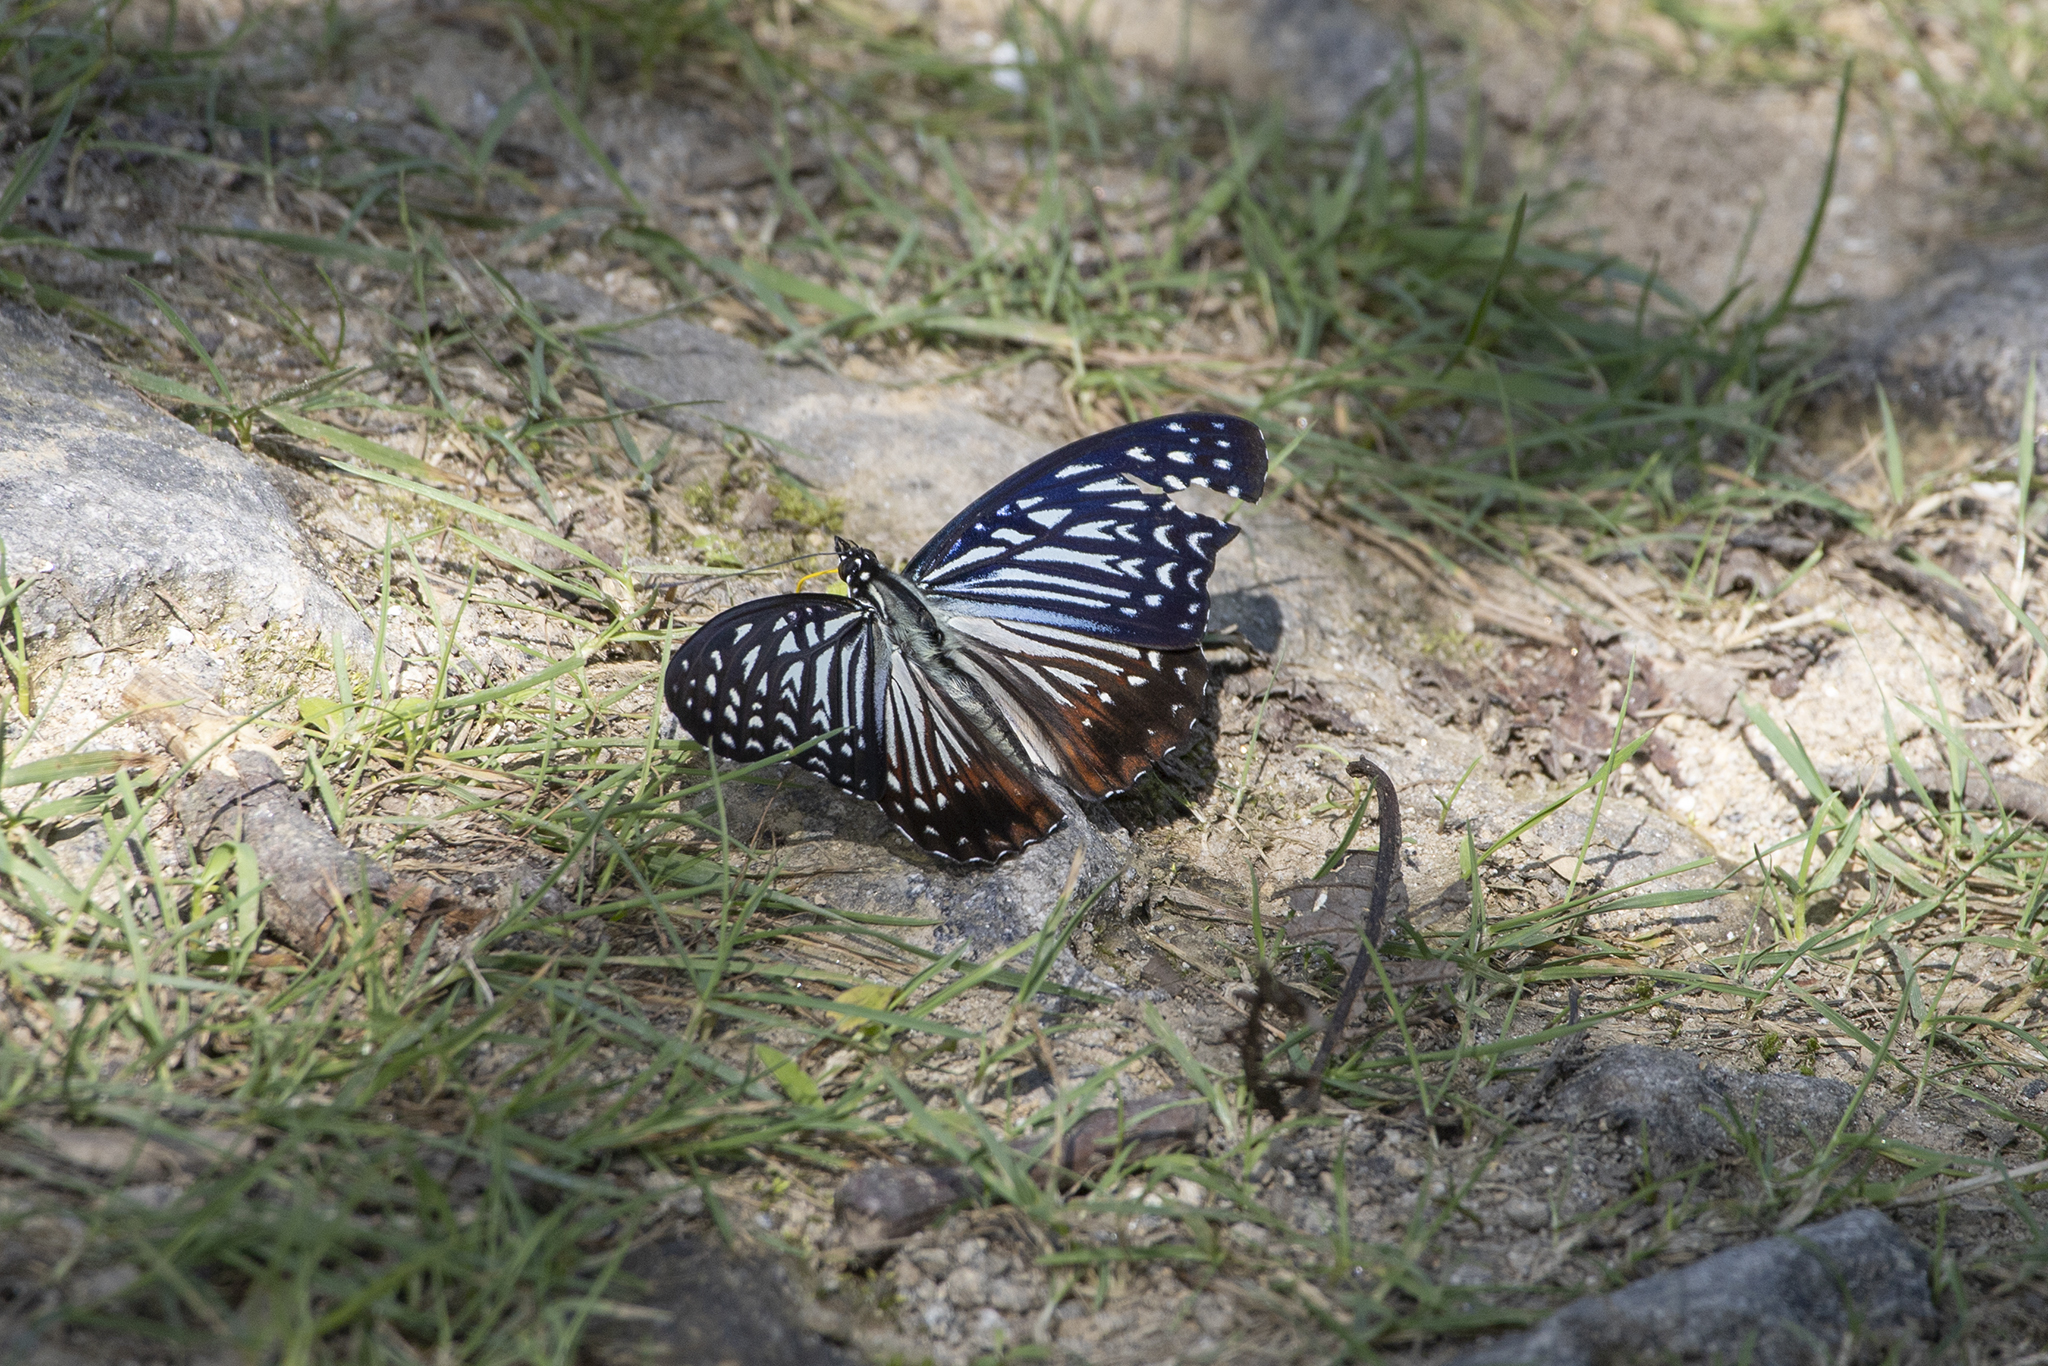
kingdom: Animalia
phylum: Arthropoda
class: Insecta
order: Lepidoptera
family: Nymphalidae
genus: Hestinalis
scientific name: Hestinalis nama
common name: Circe
